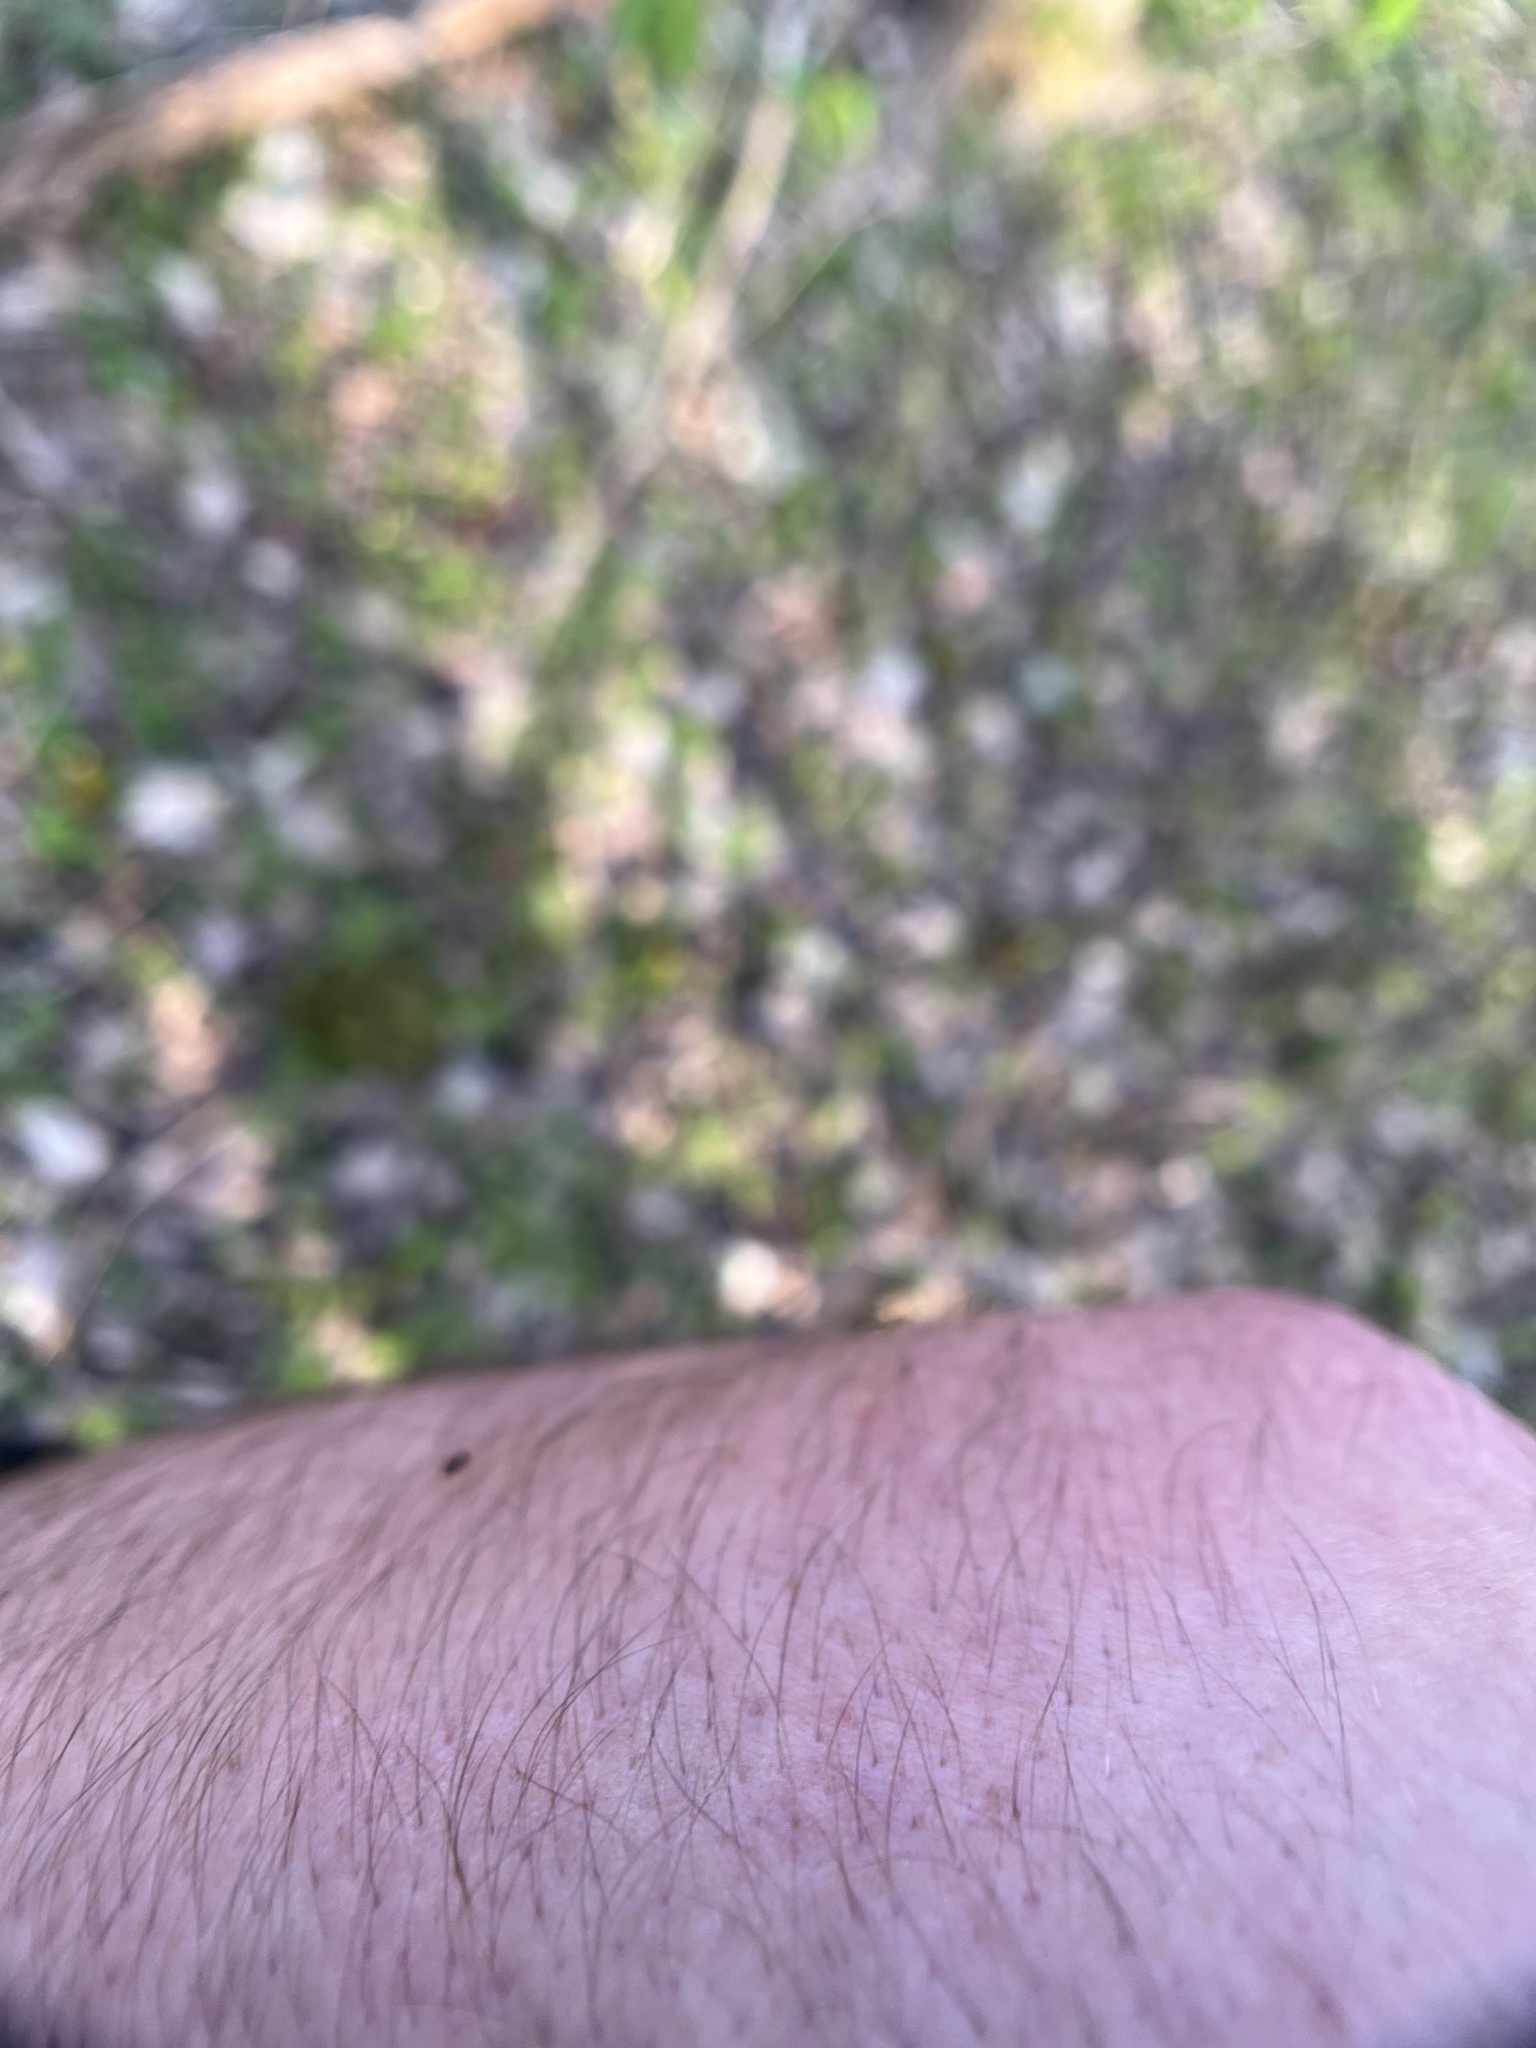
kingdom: Animalia
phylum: Arthropoda
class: Insecta
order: Hymenoptera
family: Formicidae
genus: Lasius
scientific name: Lasius americanus
